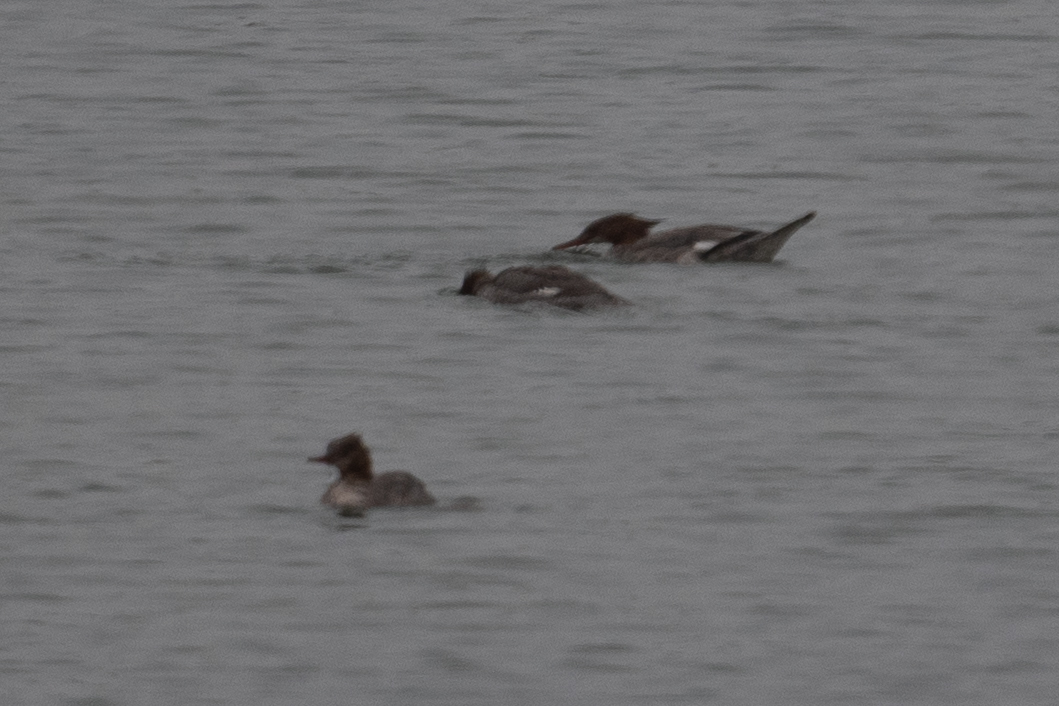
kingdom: Animalia
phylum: Chordata
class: Aves
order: Anseriformes
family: Anatidae
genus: Mergus
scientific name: Mergus merganser
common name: Common merganser
